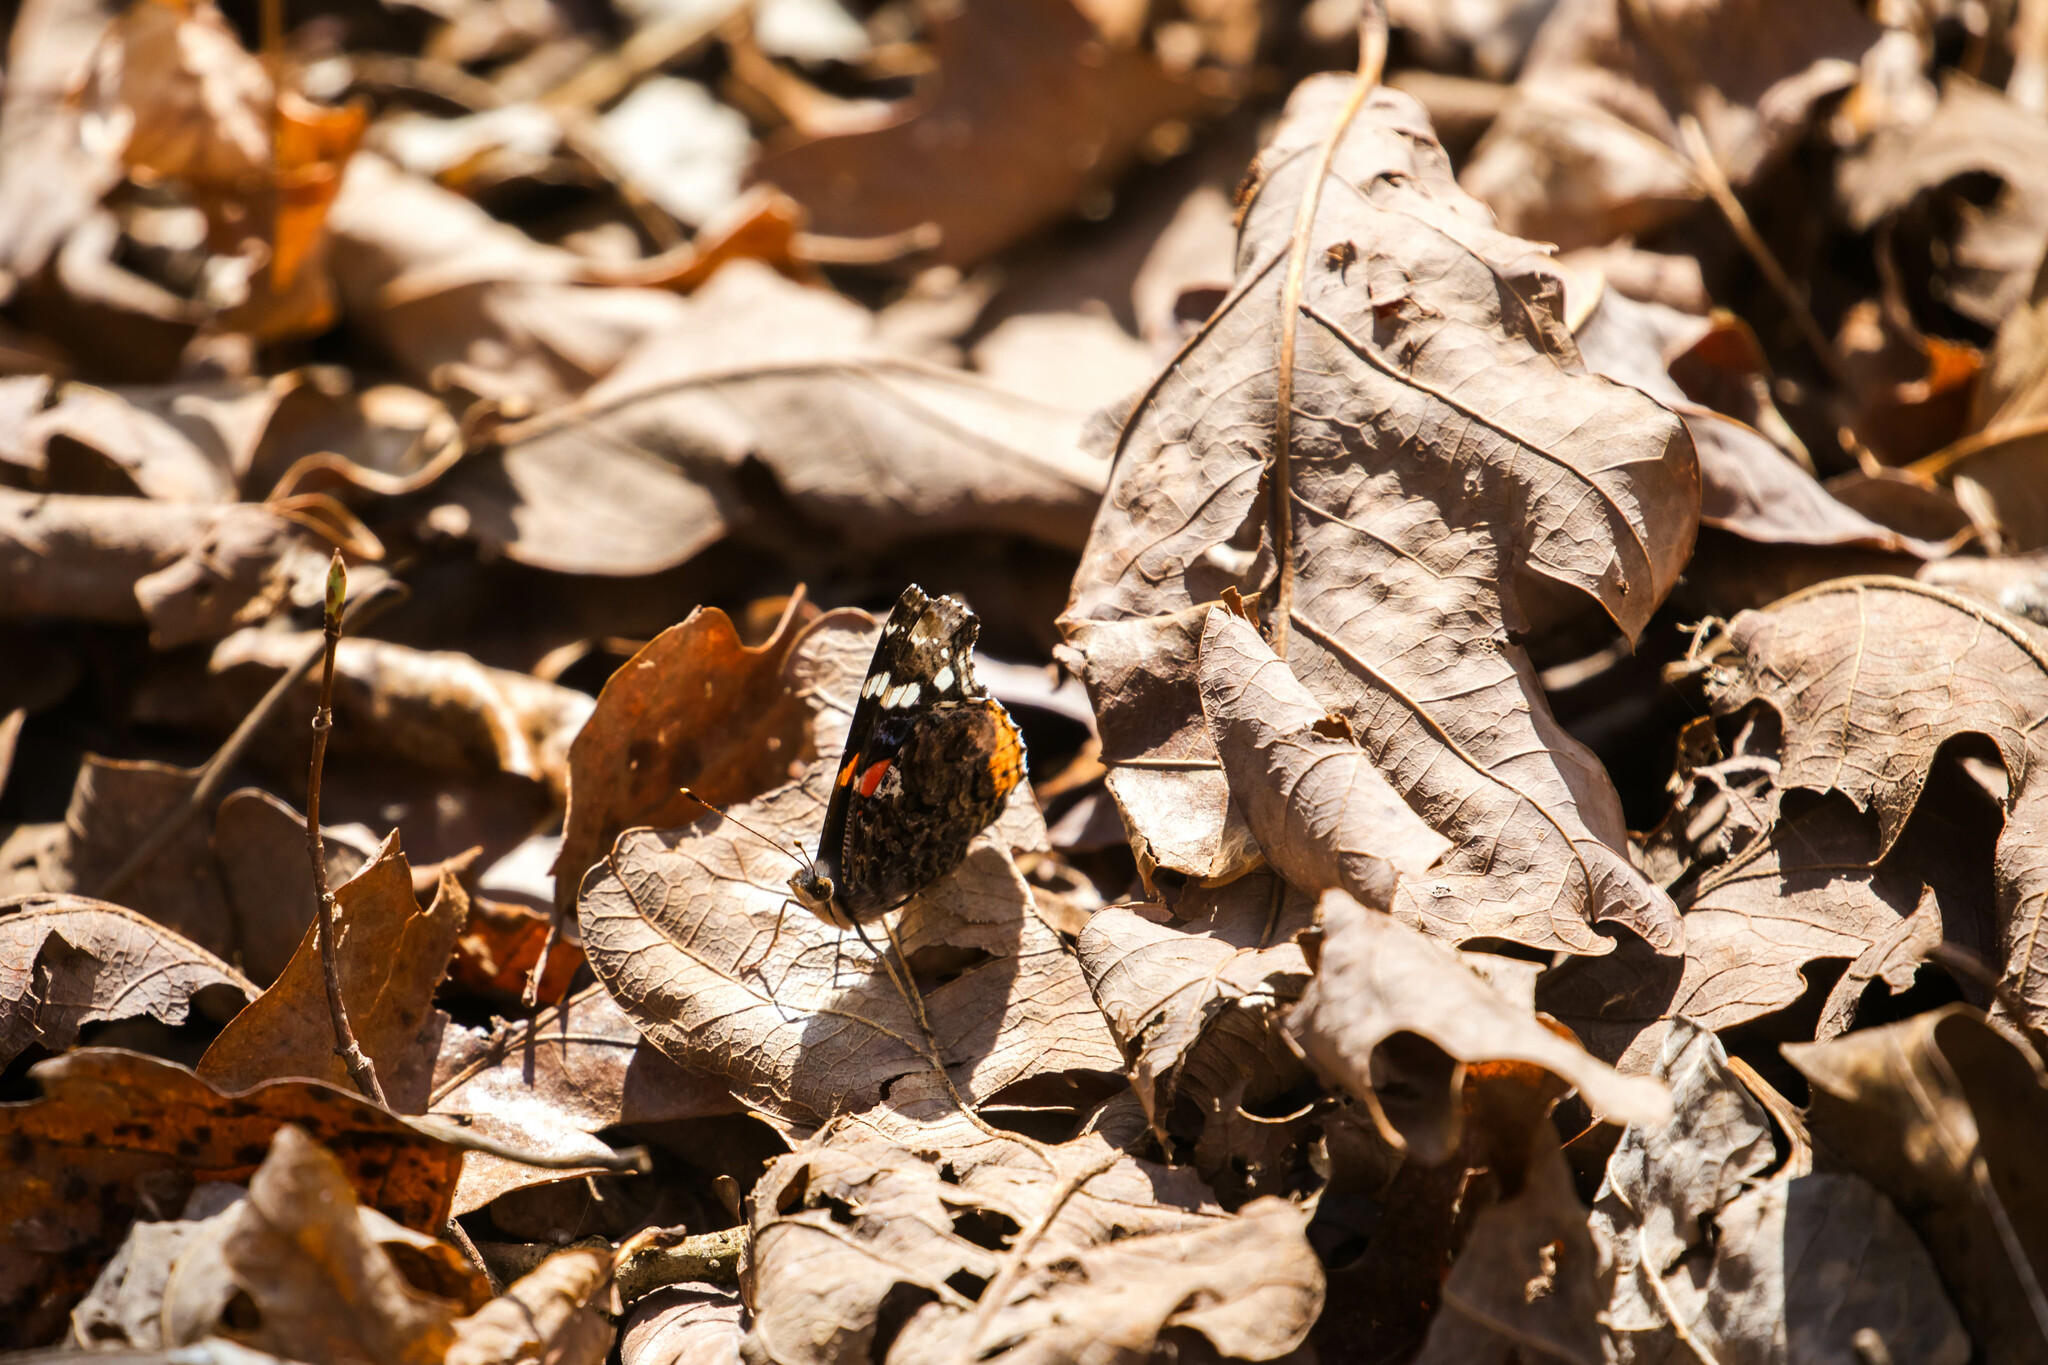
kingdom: Animalia
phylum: Arthropoda
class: Insecta
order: Lepidoptera
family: Nymphalidae
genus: Vanessa
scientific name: Vanessa atalanta
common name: Red admiral
